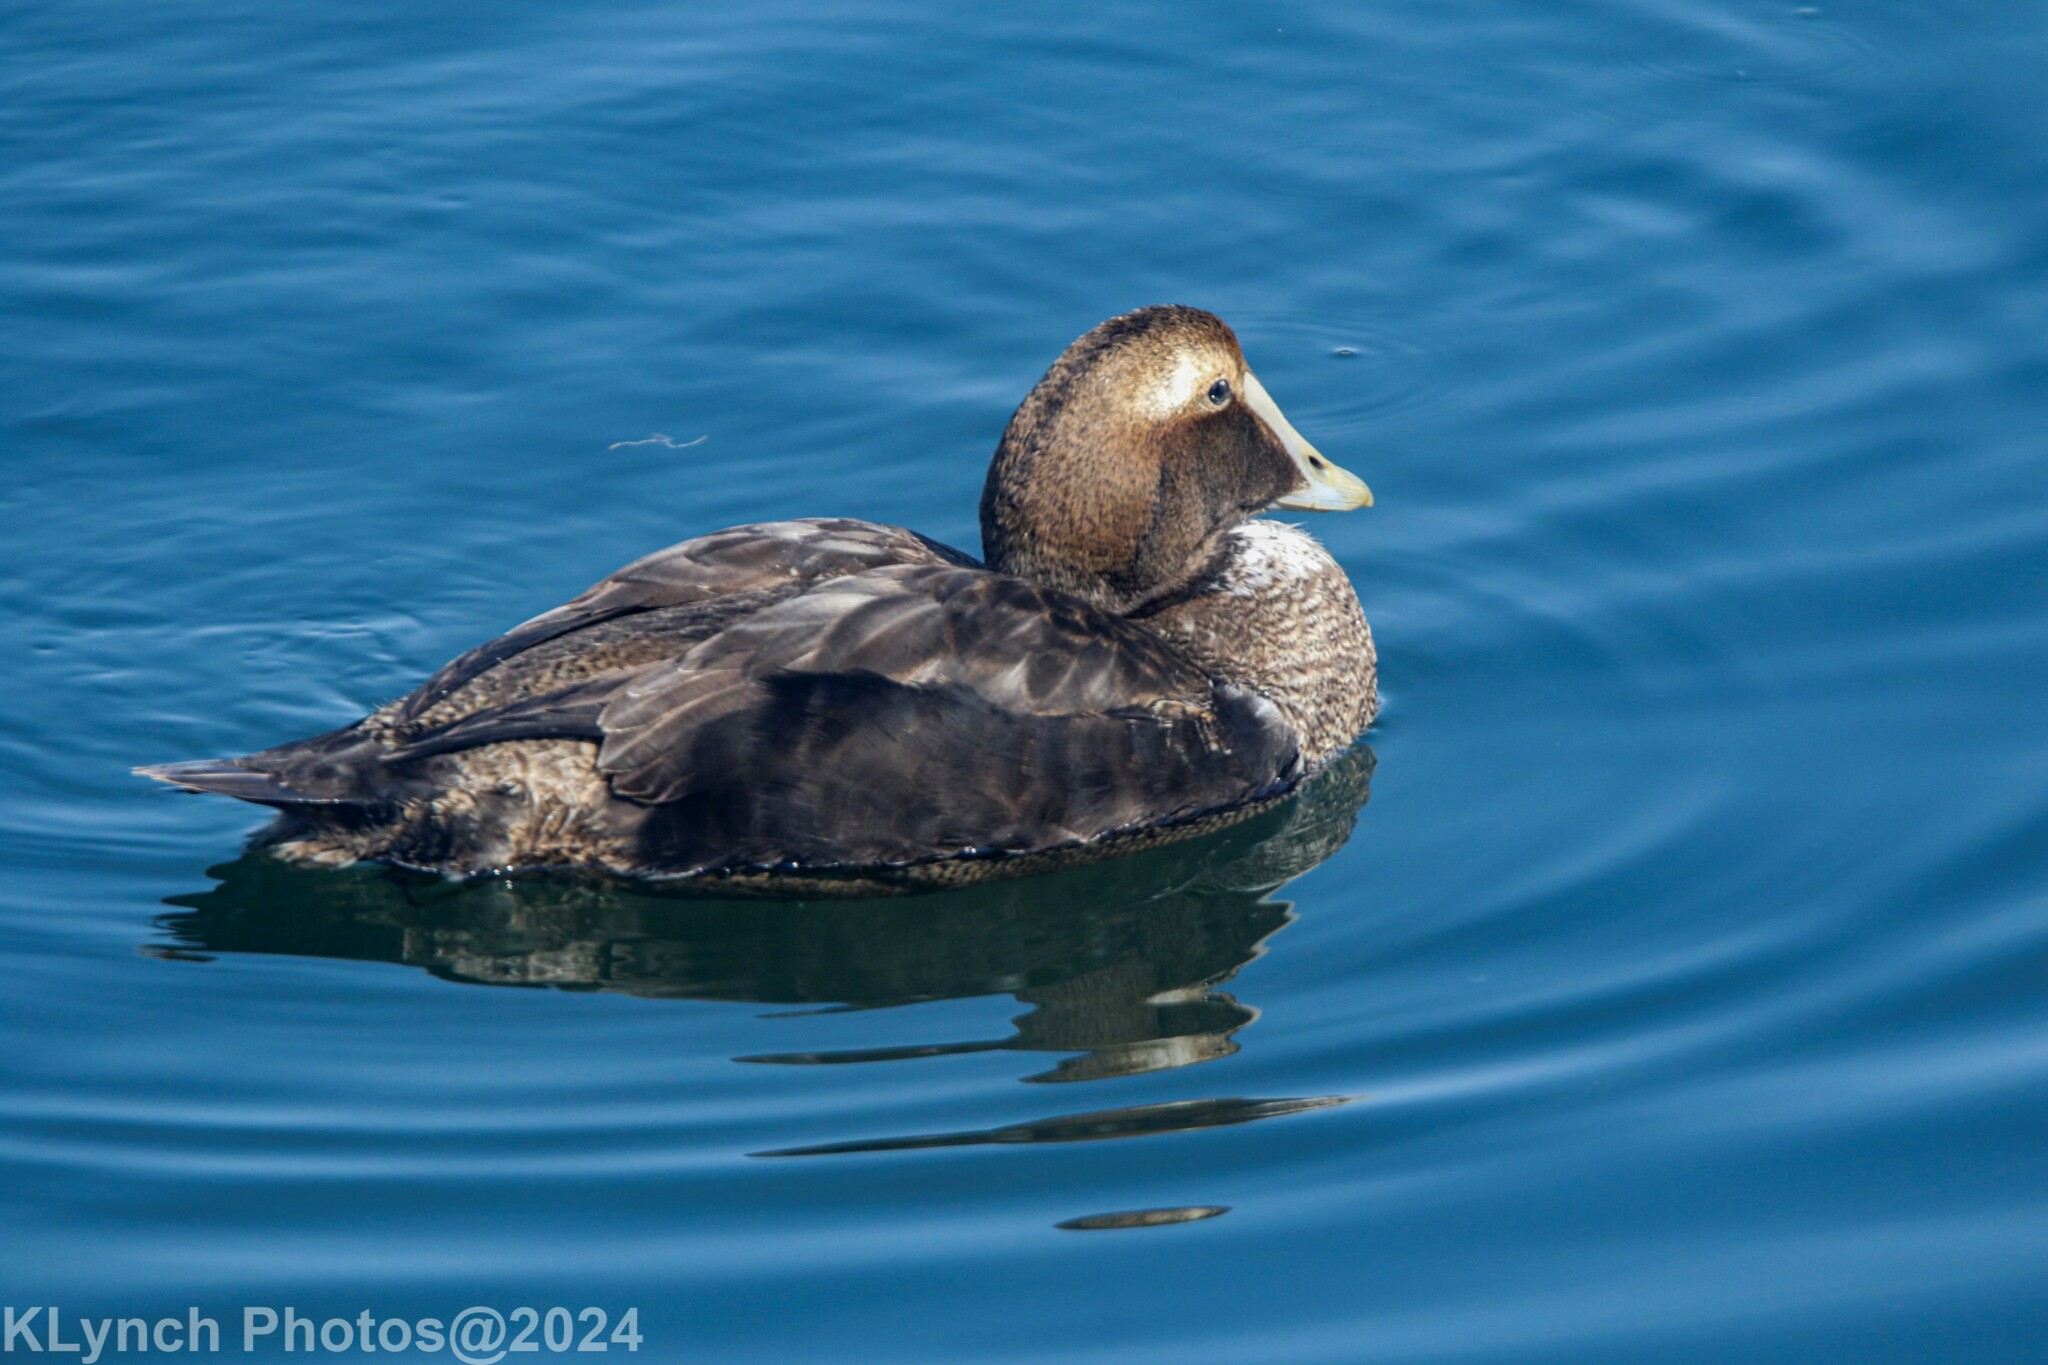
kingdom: Animalia
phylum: Chordata
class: Aves
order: Anseriformes
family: Anatidae
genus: Somateria
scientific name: Somateria mollissima
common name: Common eider
